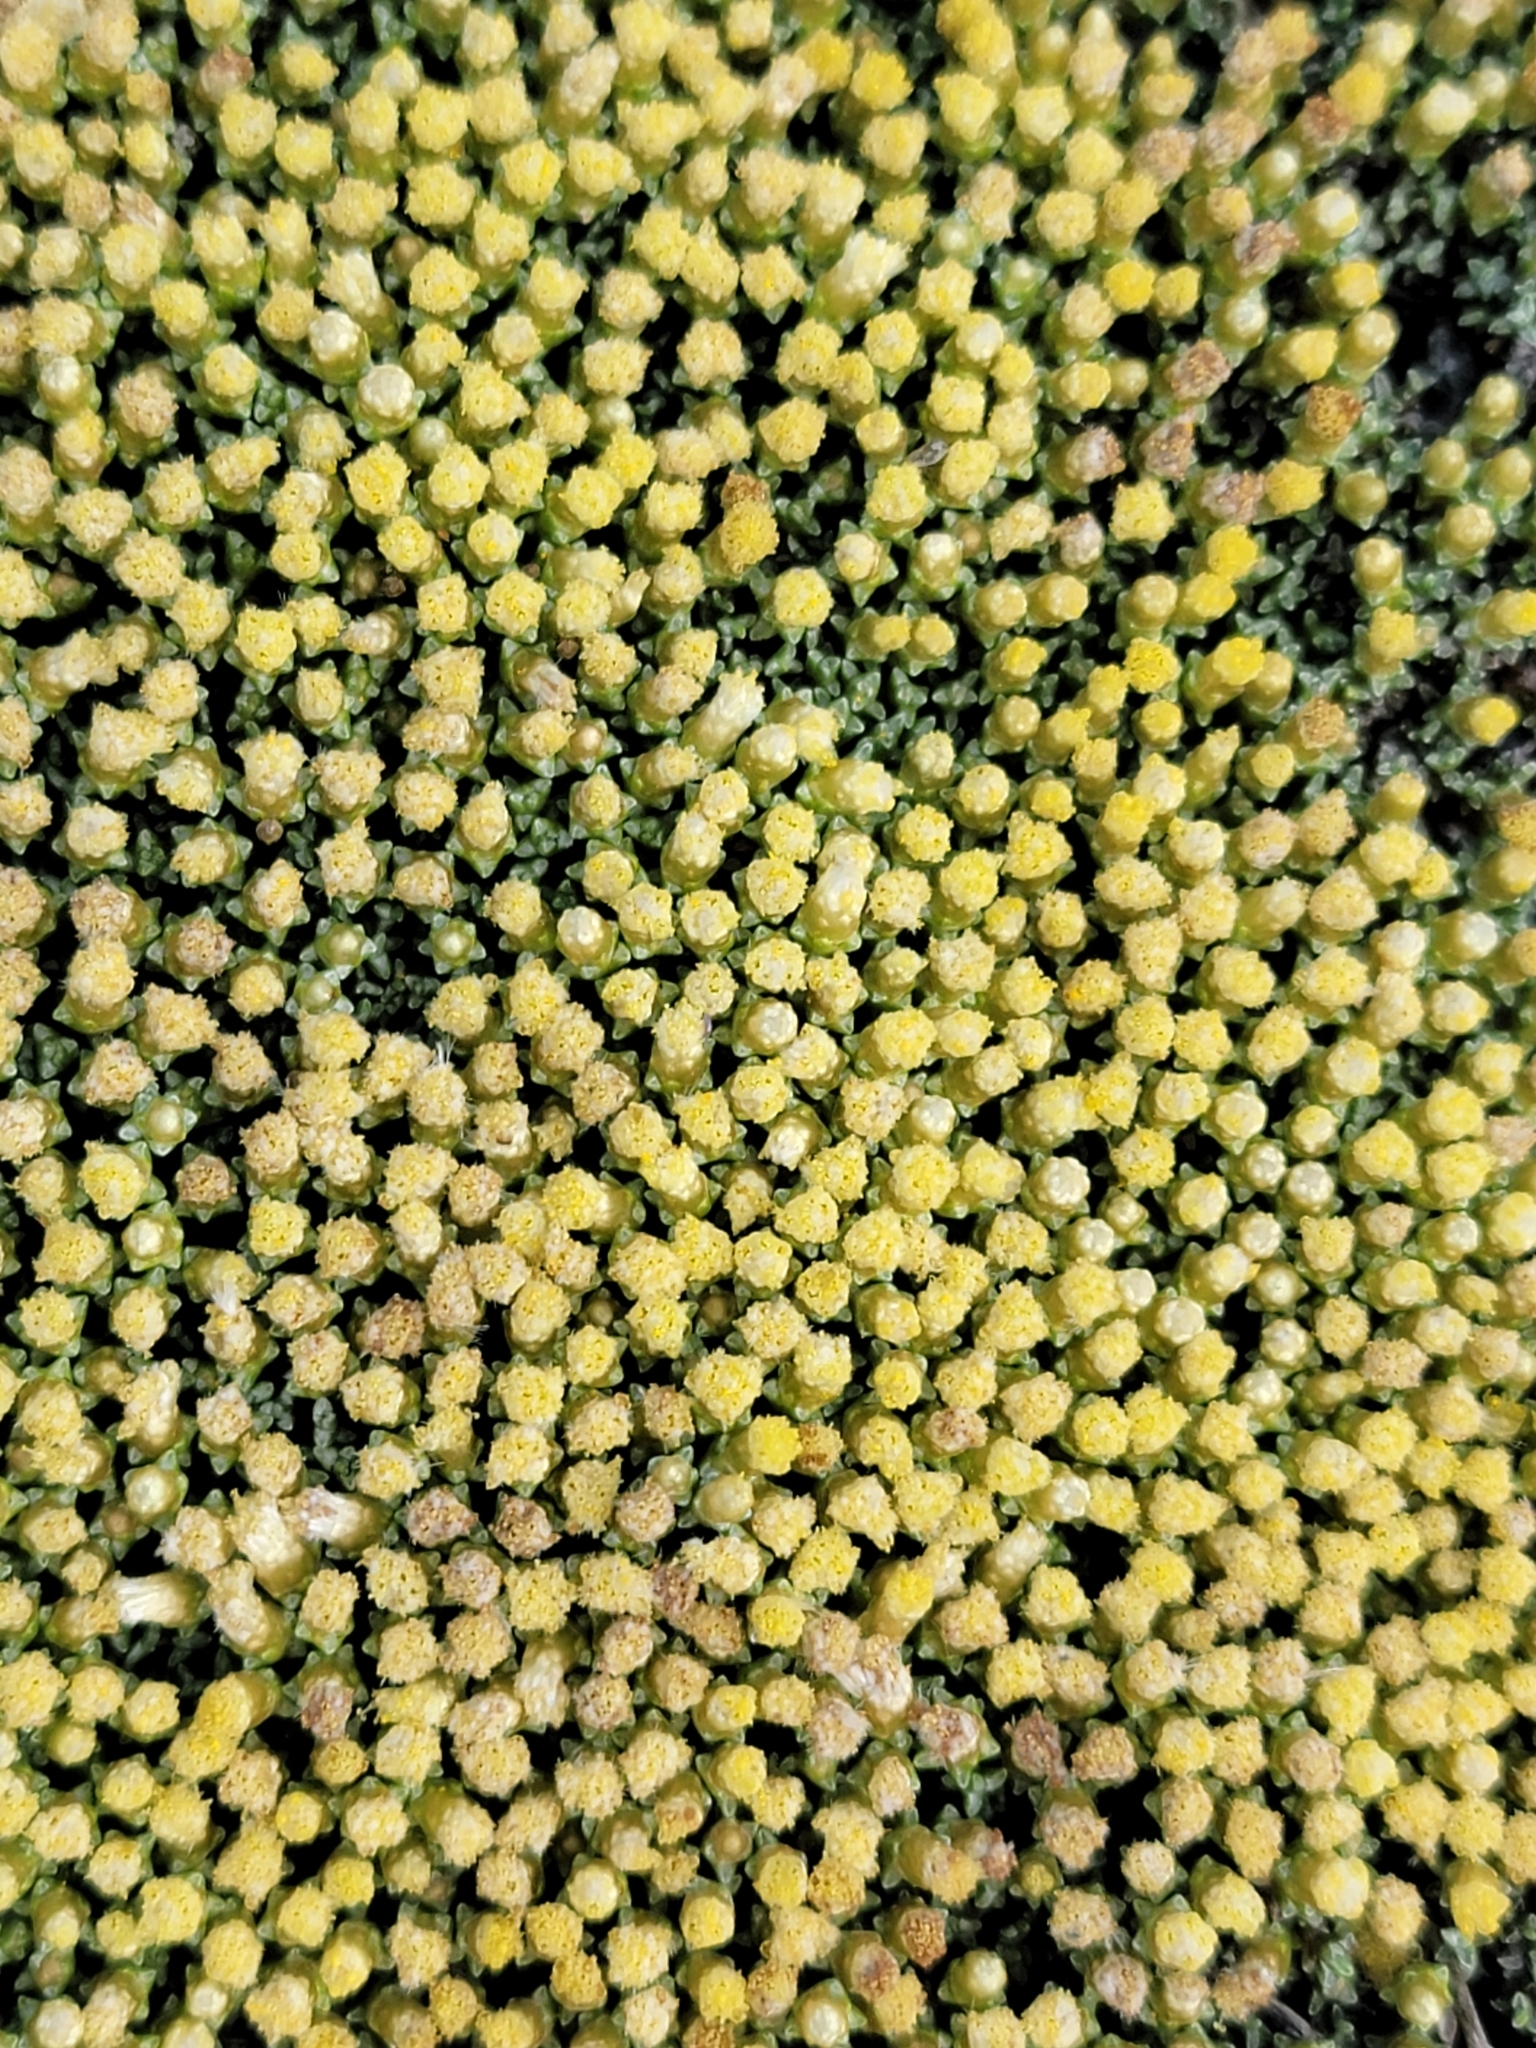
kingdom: Plantae
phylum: Tracheophyta
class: Magnoliopsida
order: Asterales
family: Asteraceae
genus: Raoulia
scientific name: Raoulia australis
